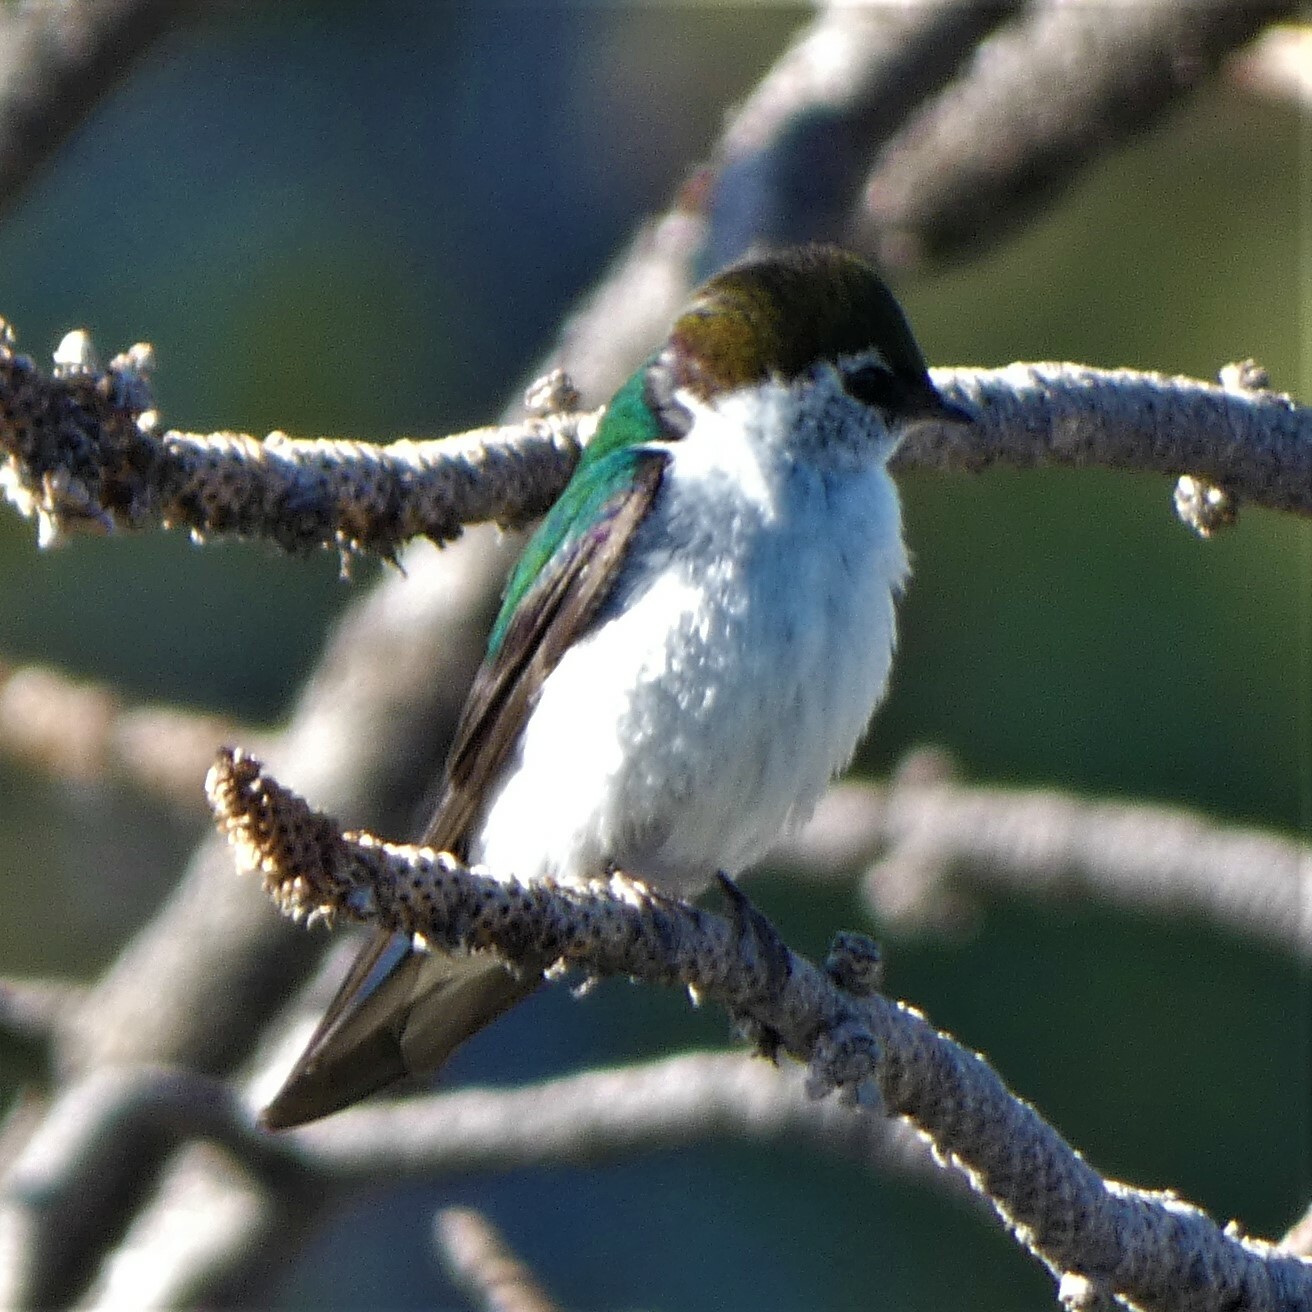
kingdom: Animalia
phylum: Chordata
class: Aves
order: Passeriformes
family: Hirundinidae
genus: Tachycineta
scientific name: Tachycineta thalassina
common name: Violet-green swallow
